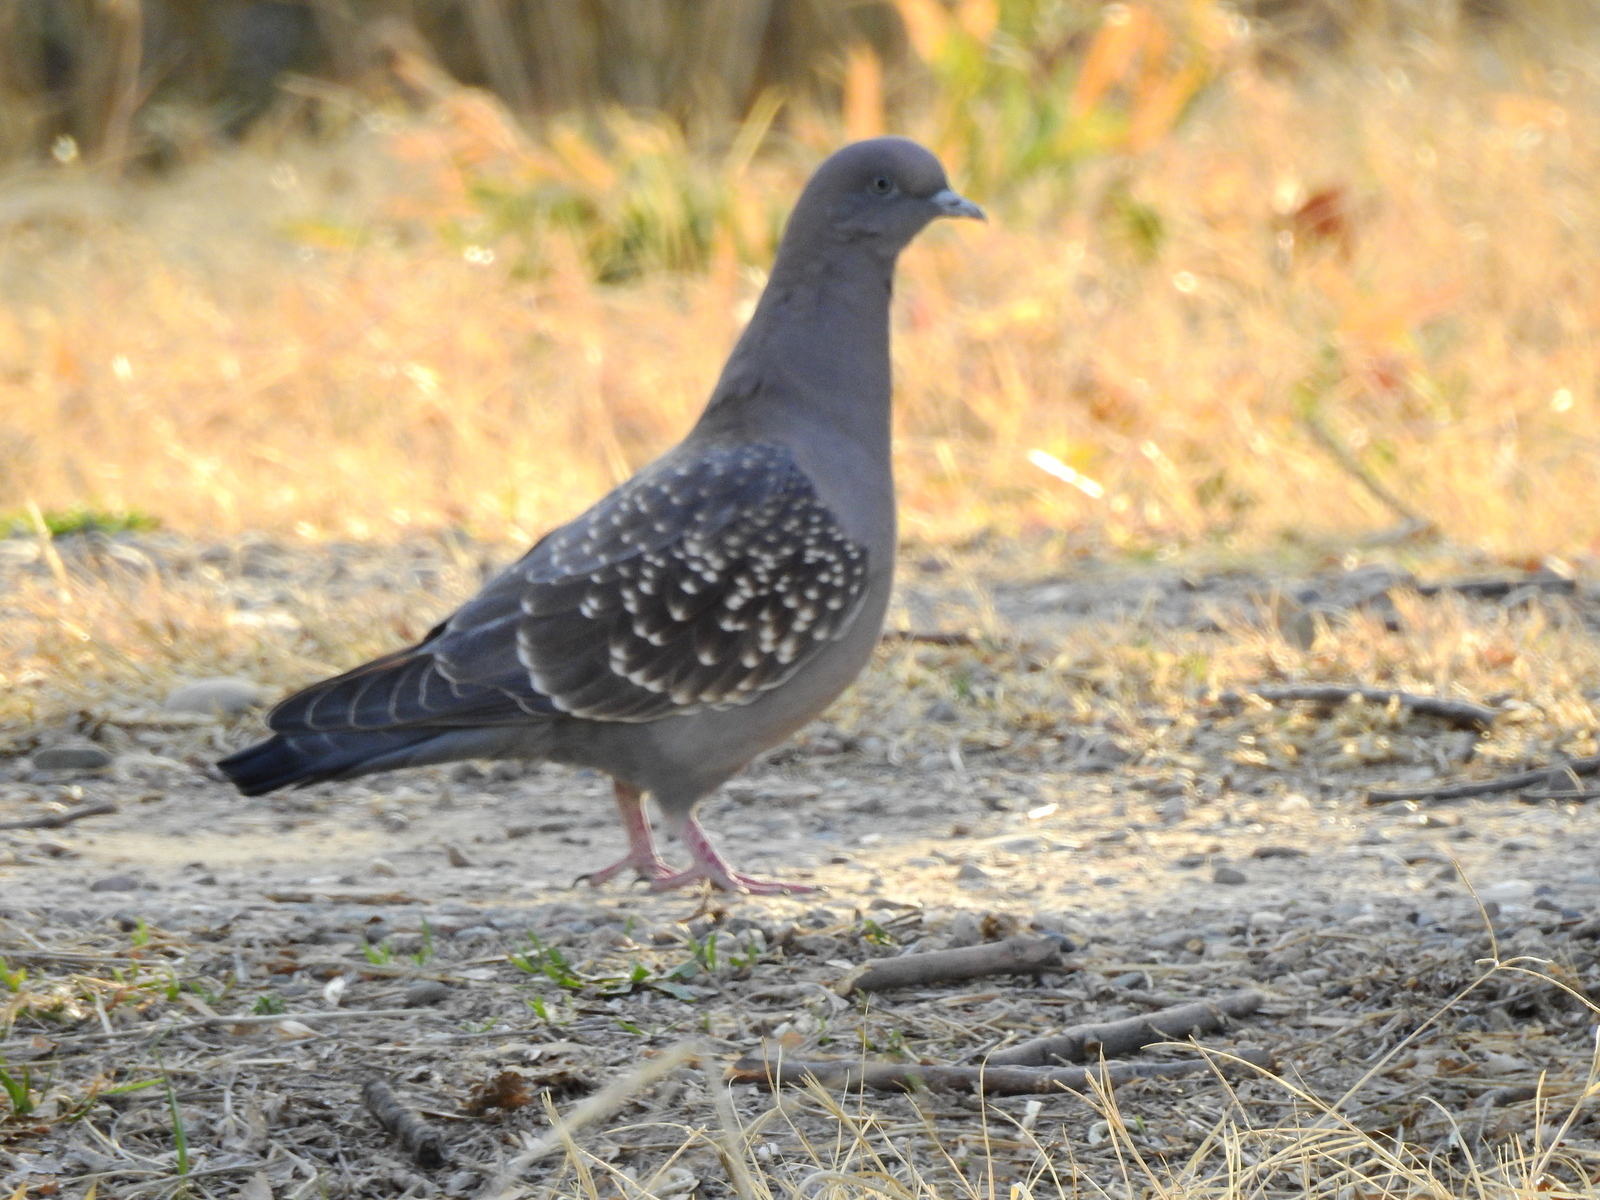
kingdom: Animalia
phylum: Chordata
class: Aves
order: Columbiformes
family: Columbidae
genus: Patagioenas
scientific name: Patagioenas maculosa
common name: Spot-winged pigeon
